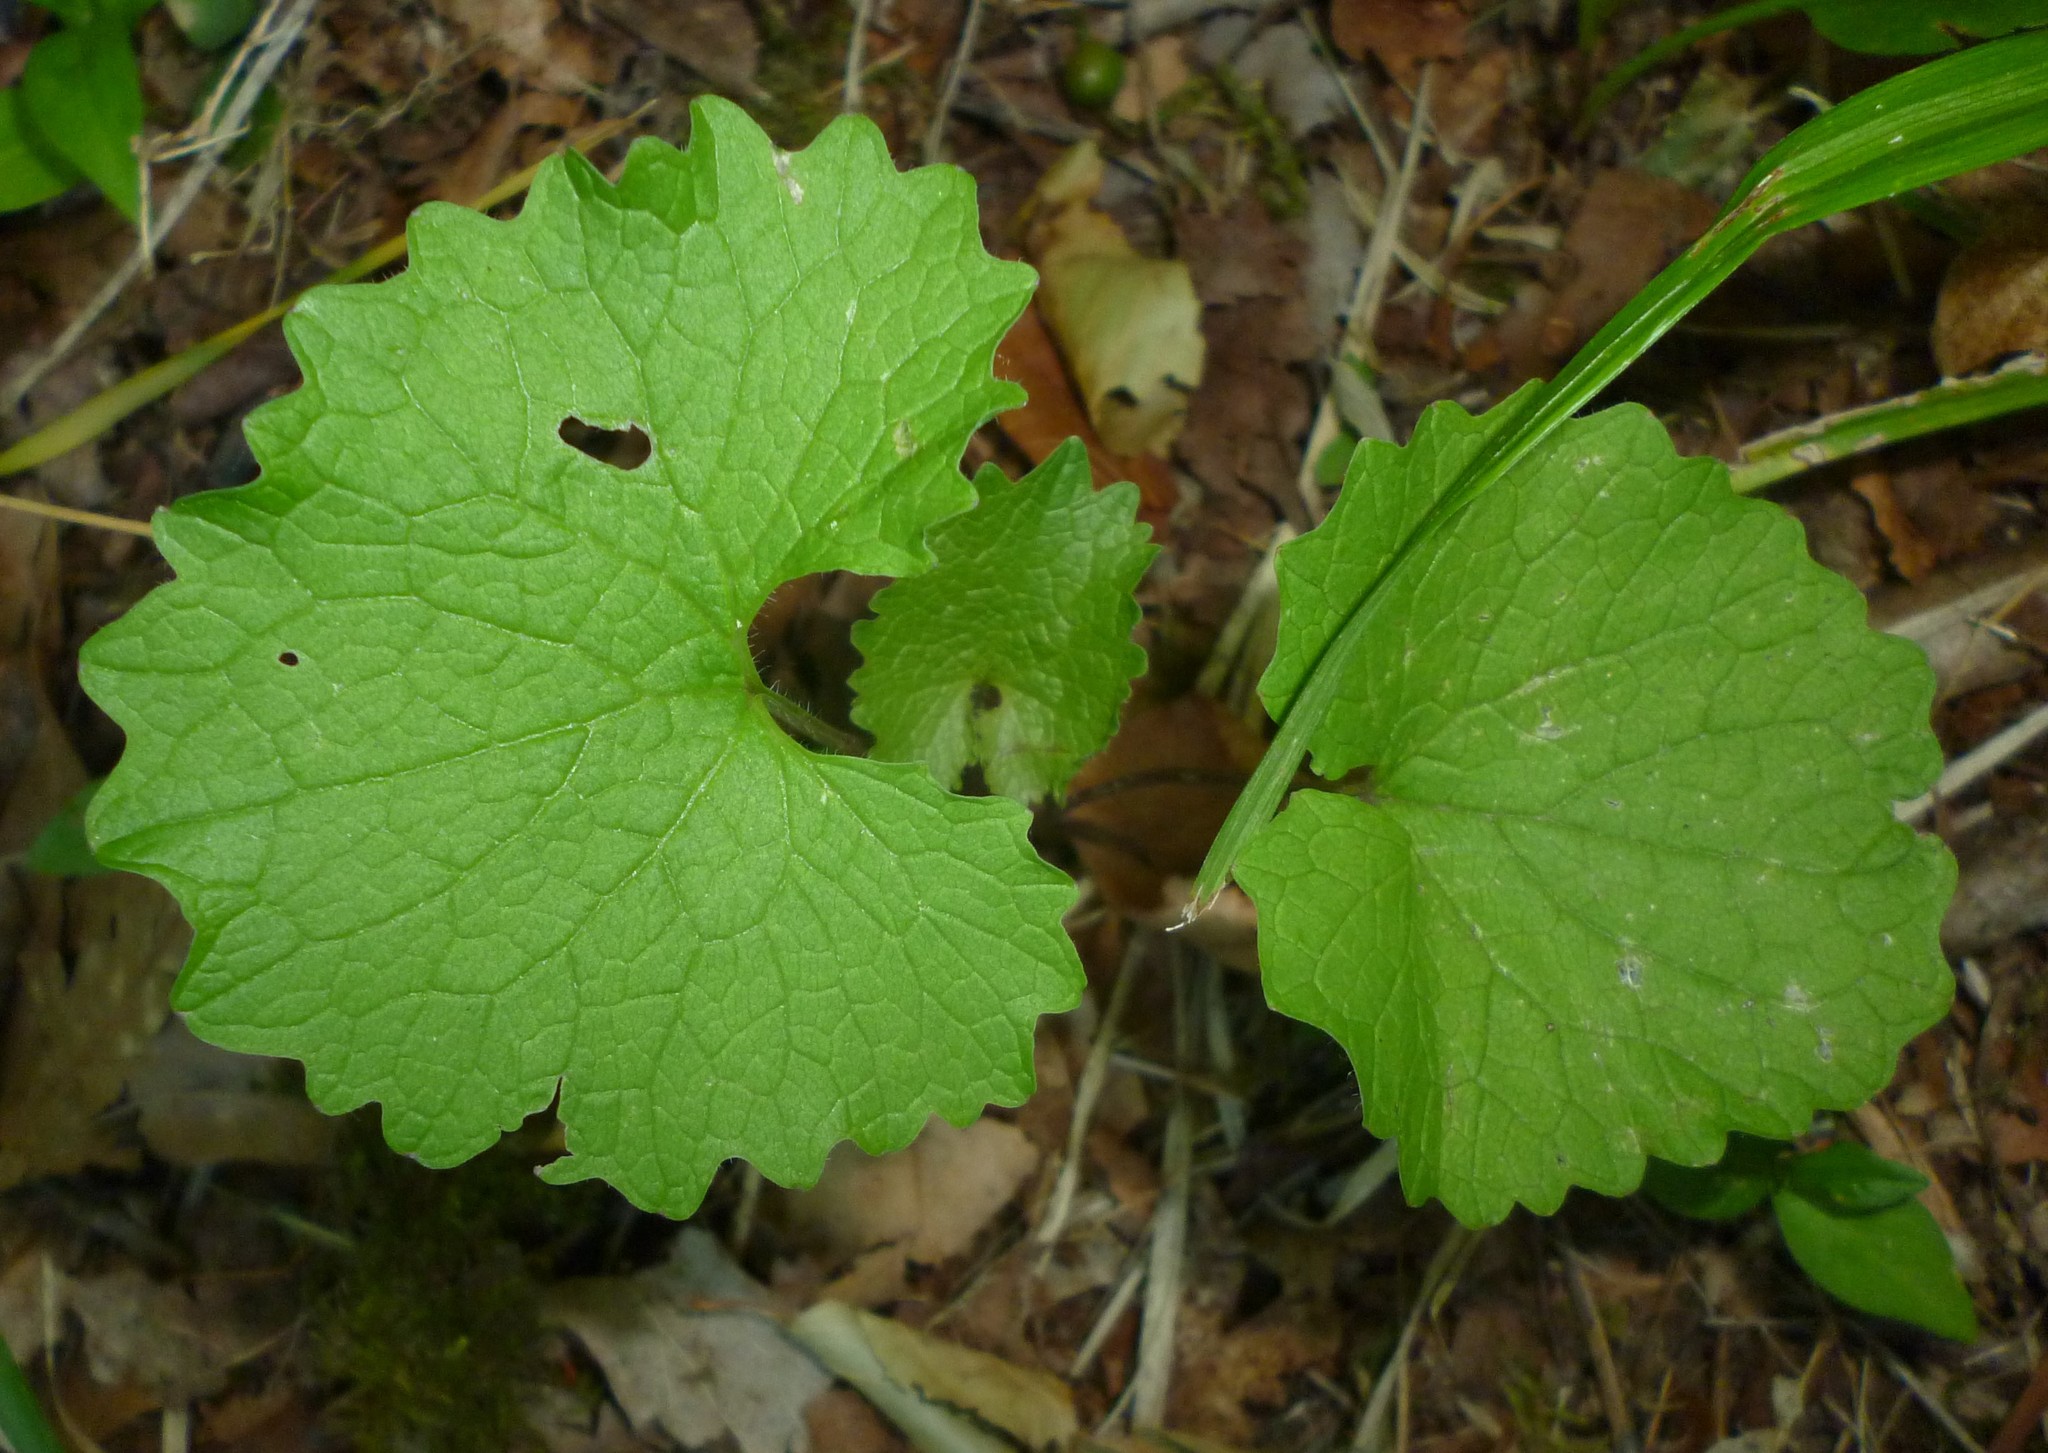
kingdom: Plantae
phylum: Tracheophyta
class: Magnoliopsida
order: Brassicales
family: Brassicaceae
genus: Alliaria
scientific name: Alliaria petiolata
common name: Garlic mustard
